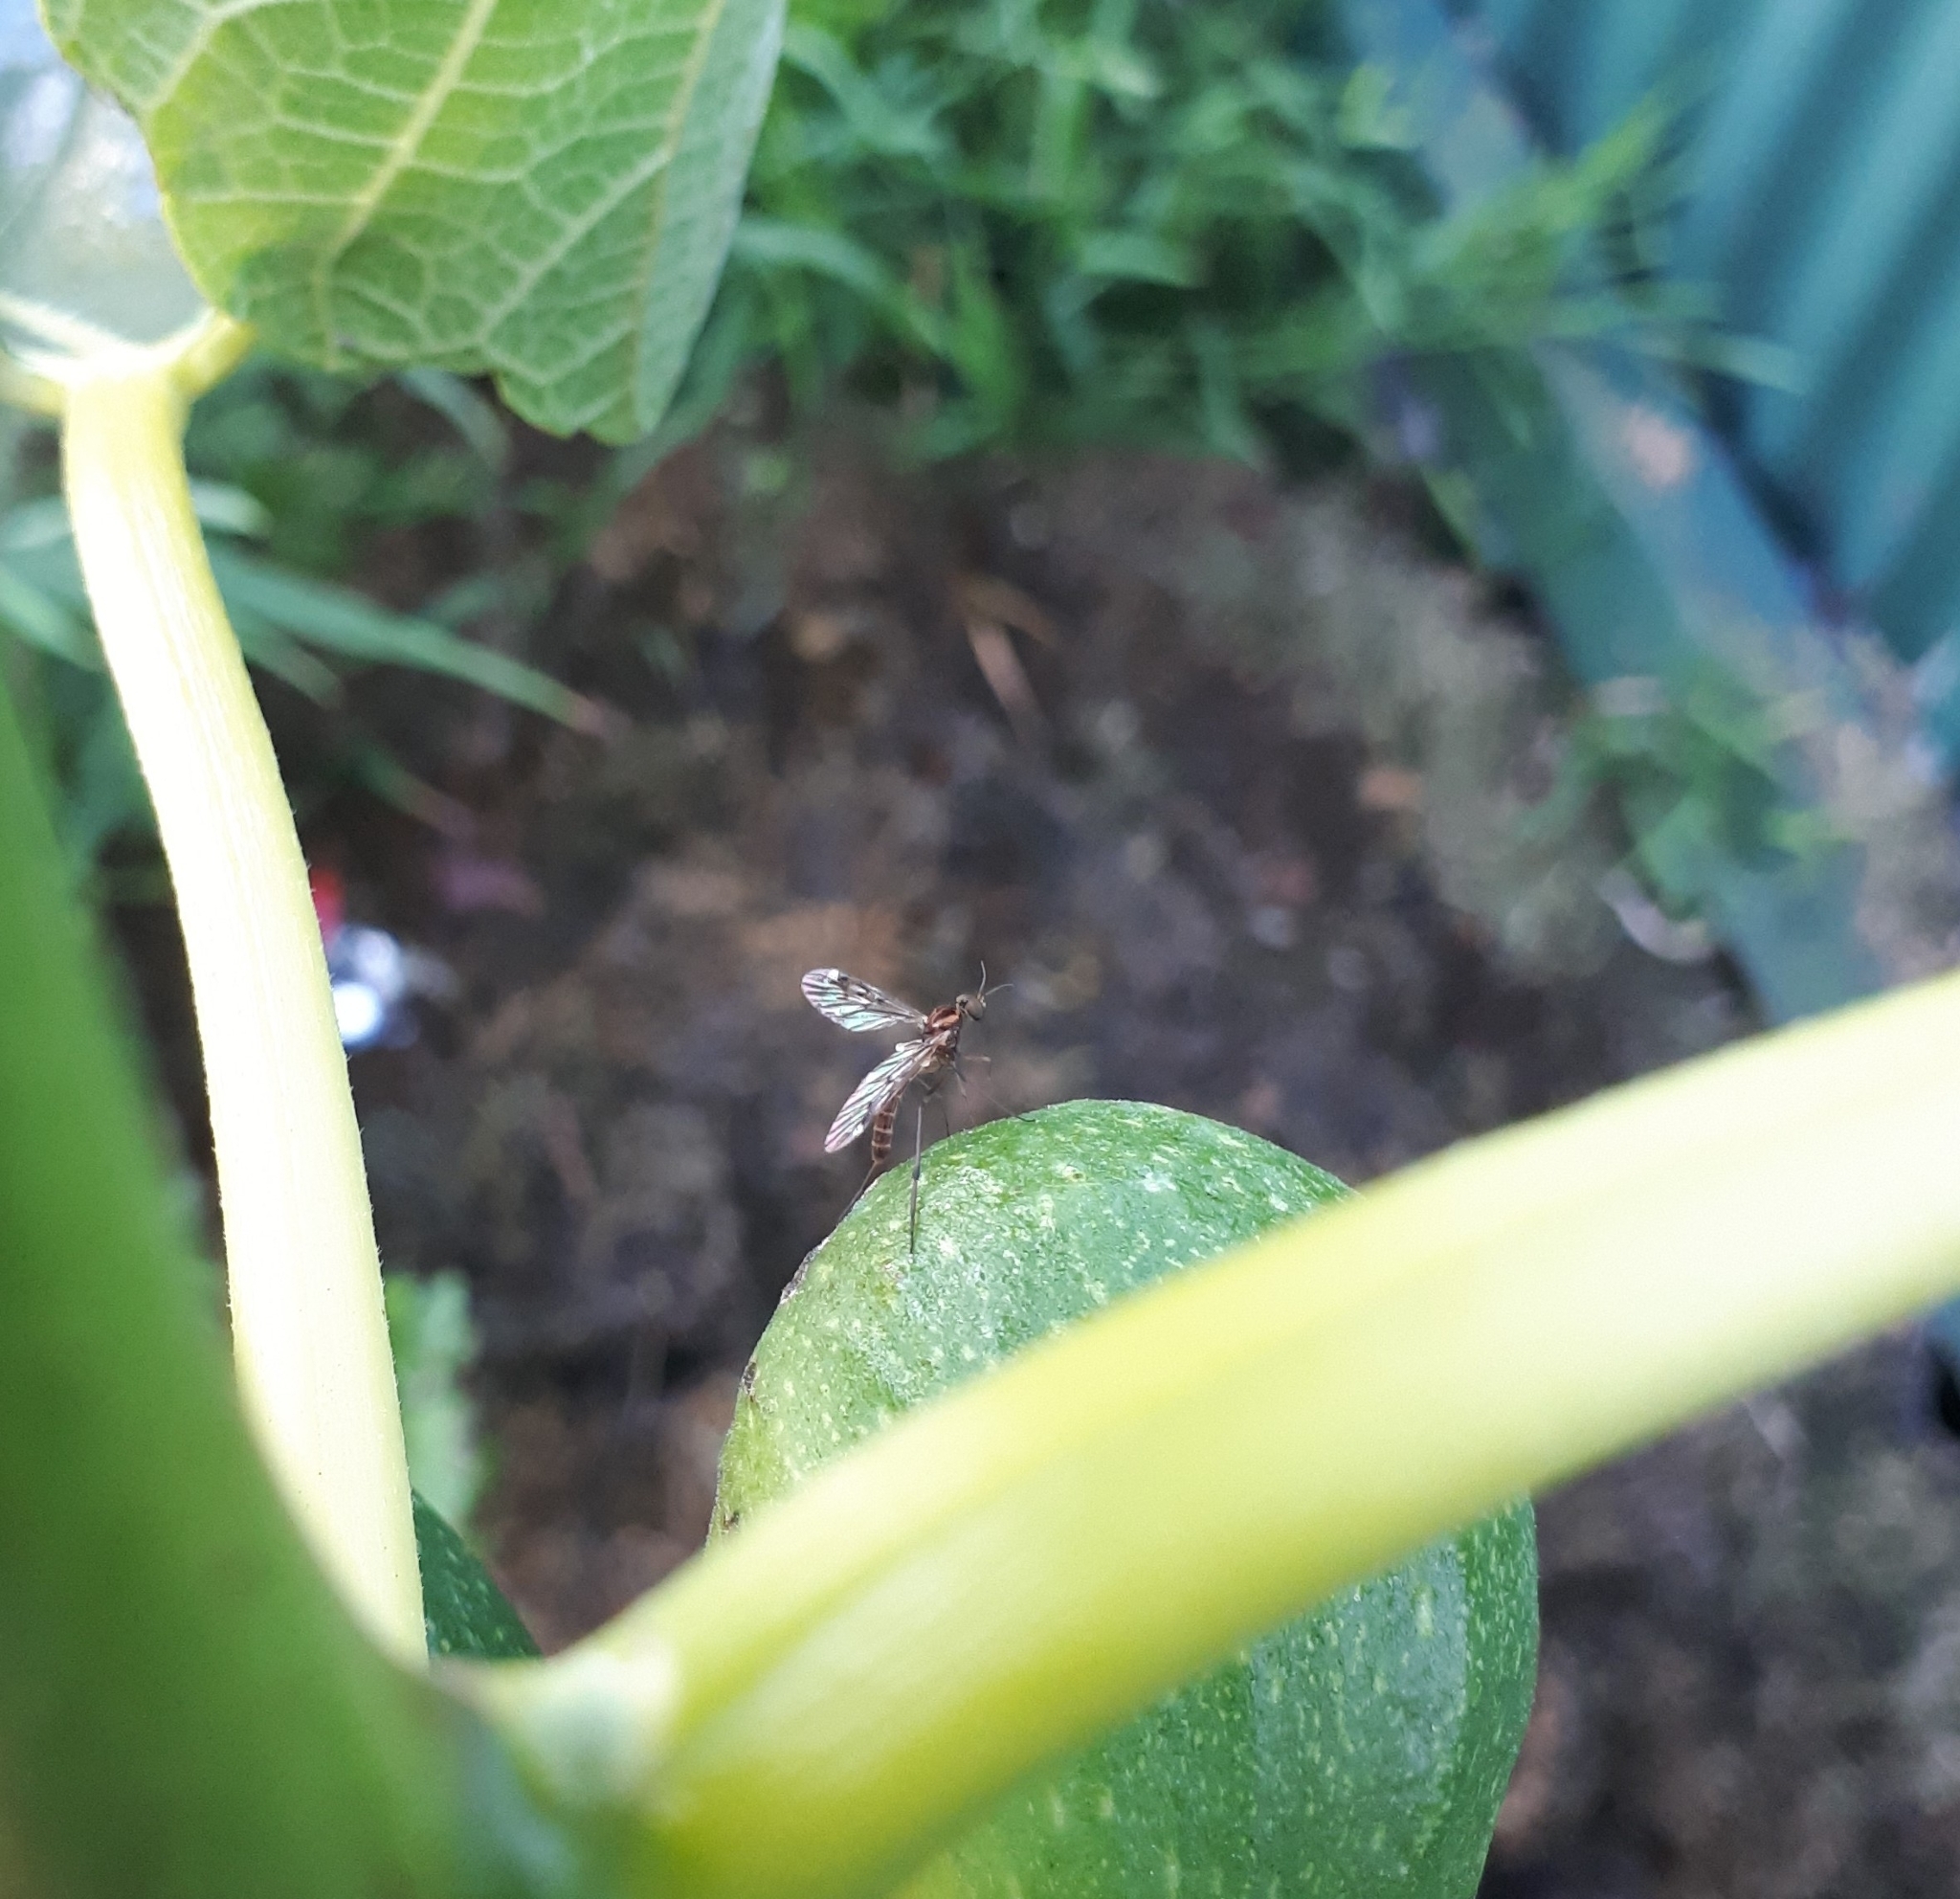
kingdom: Animalia
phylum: Arthropoda
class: Insecta
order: Diptera
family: Anisopodidae
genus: Sylvicola
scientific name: Sylvicola notatus
